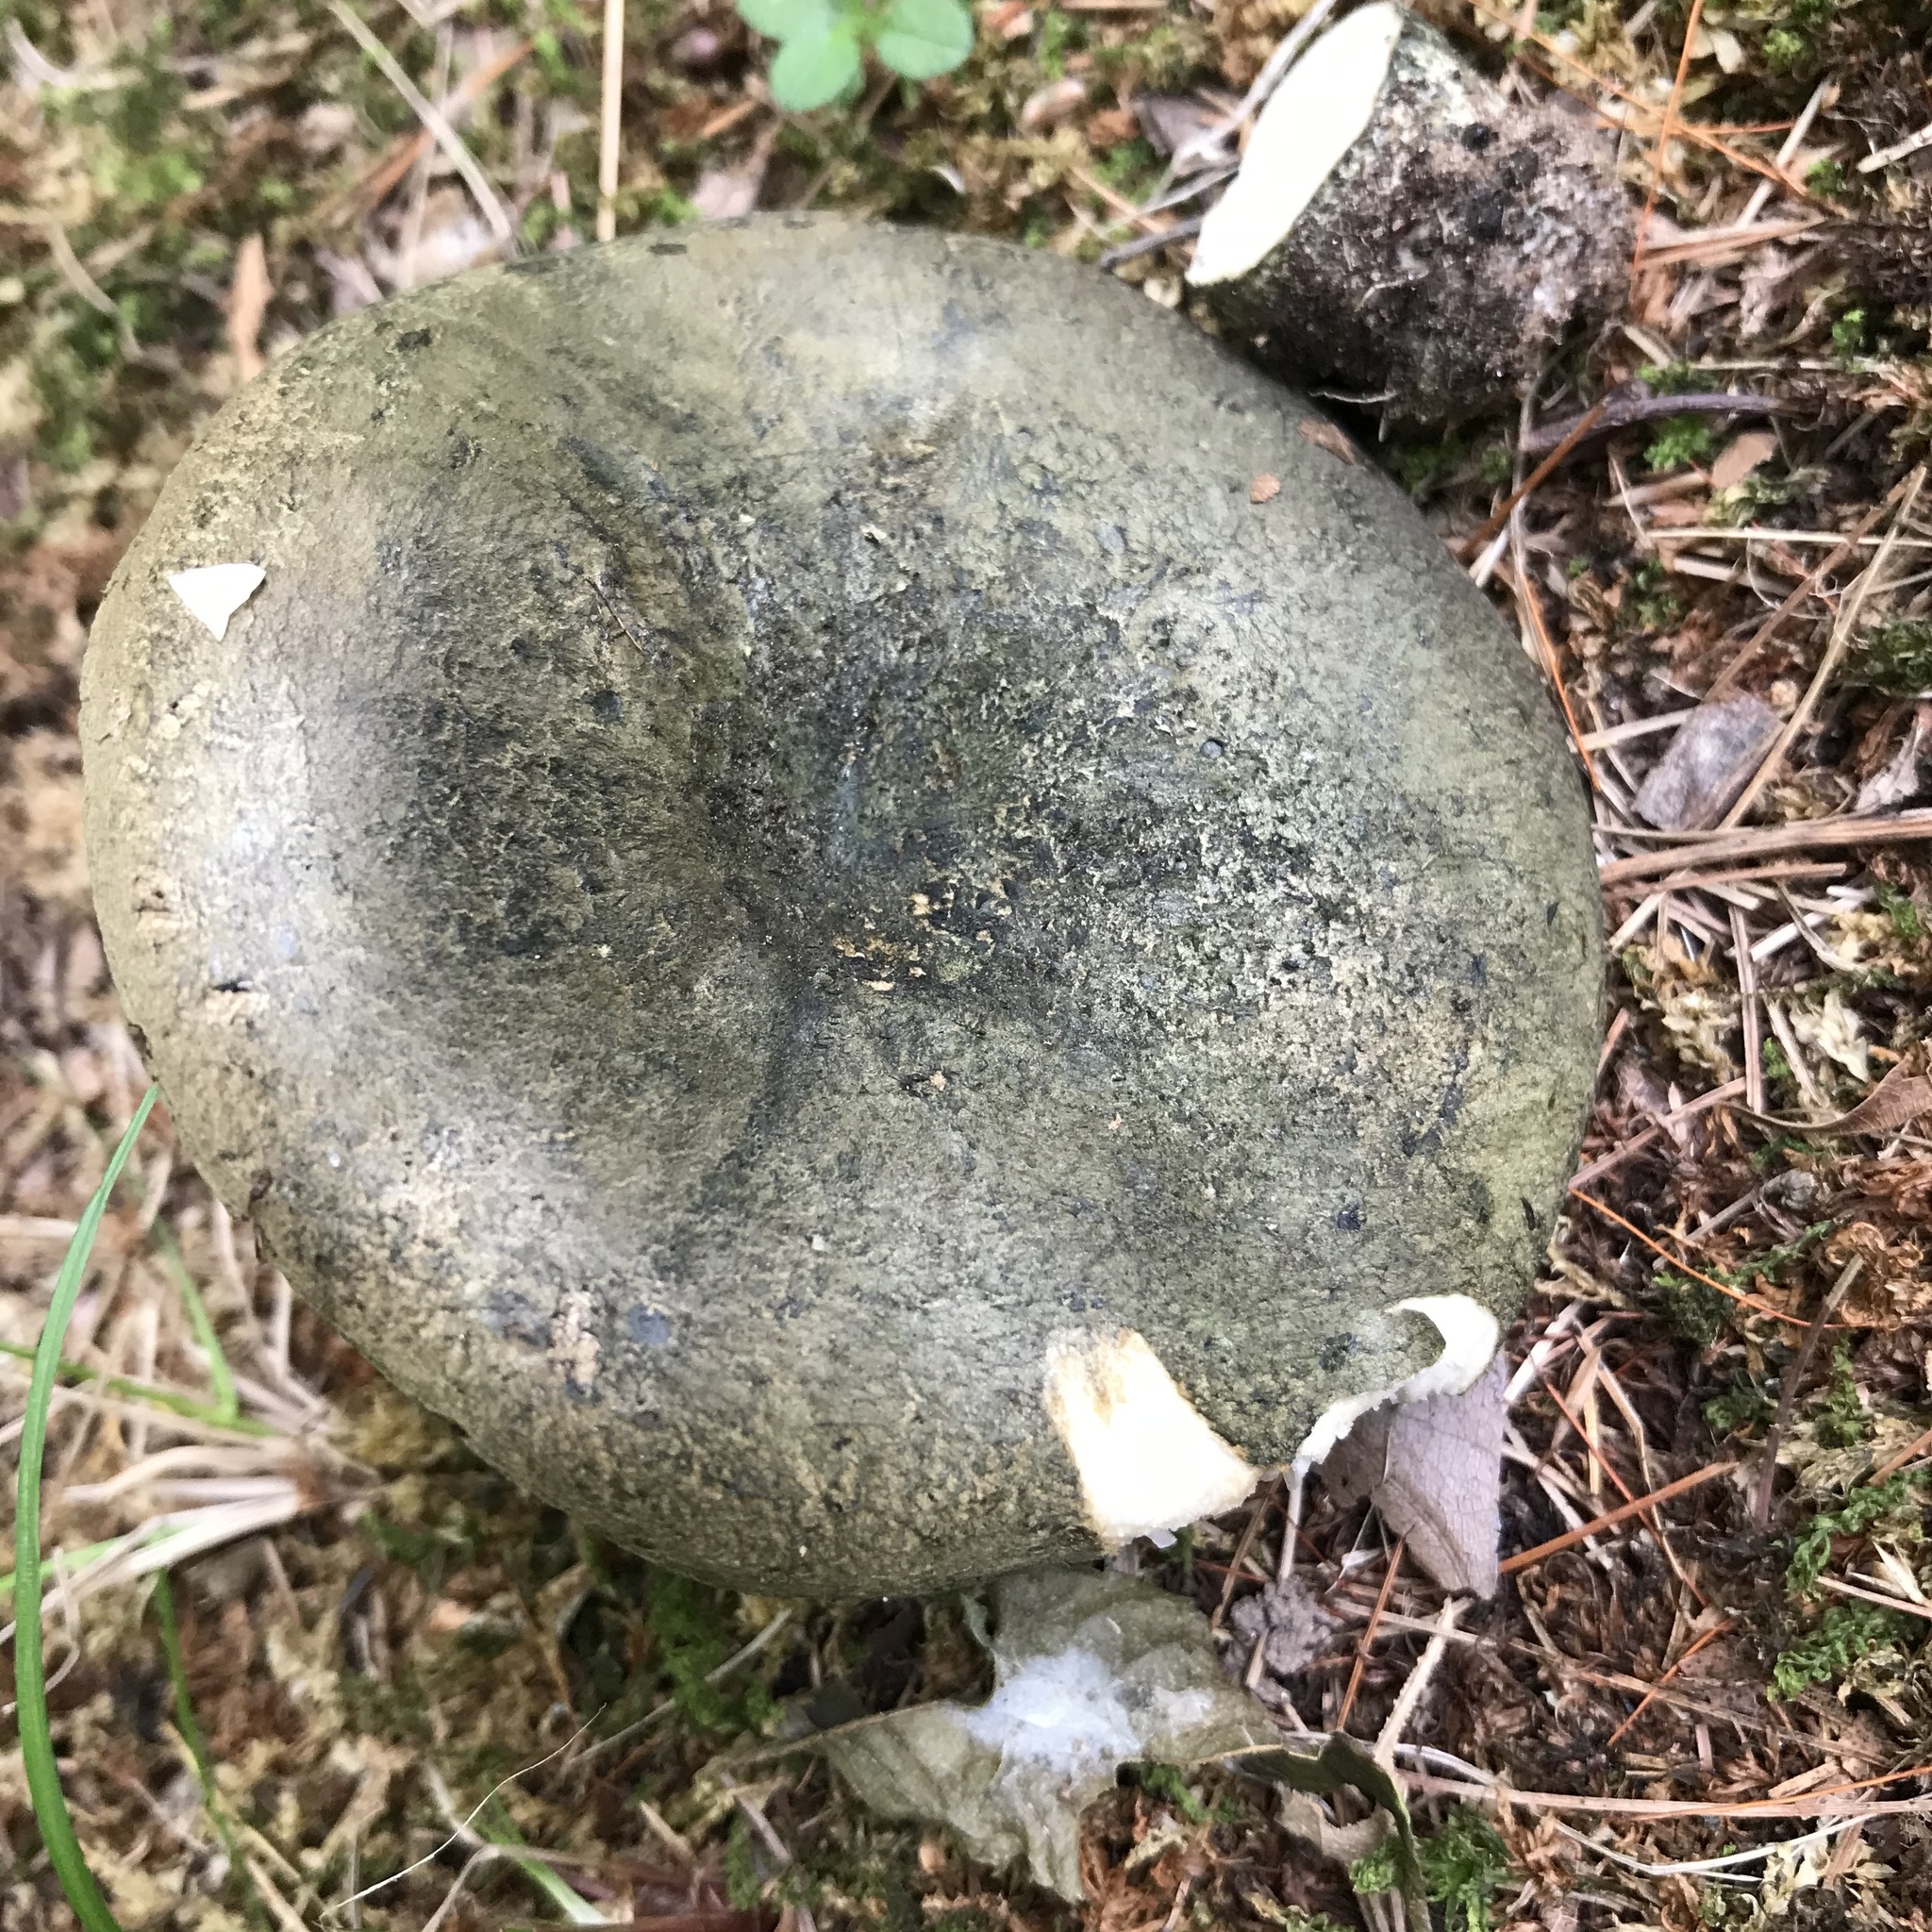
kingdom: Fungi
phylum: Basidiomycota
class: Agaricomycetes
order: Russulales
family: Russulaceae
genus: Lactarius
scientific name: Lactarius atroviridis
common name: Dark-spotted milkcap
